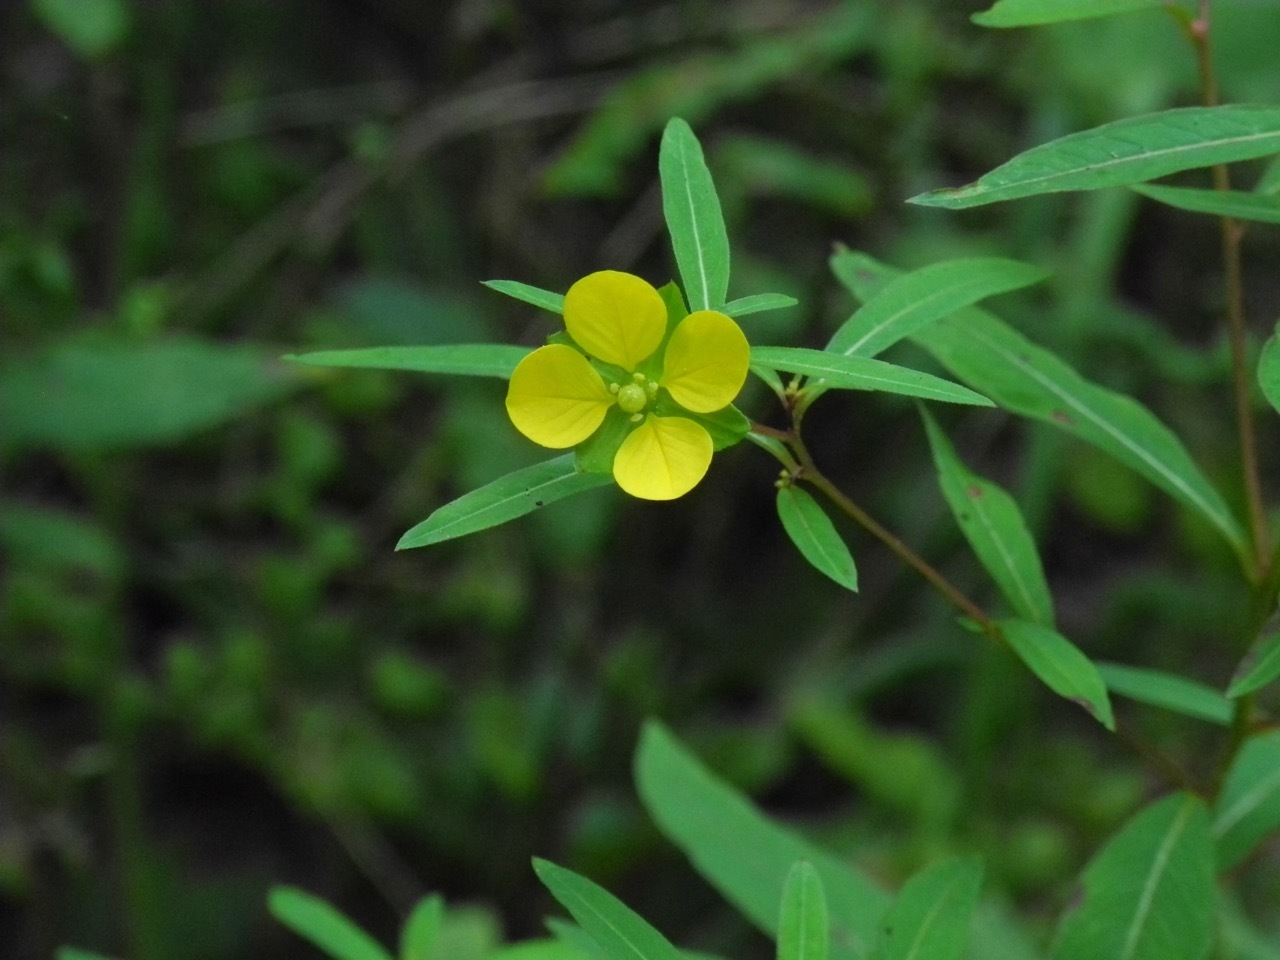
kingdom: Plantae
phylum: Tracheophyta
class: Magnoliopsida
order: Myrtales
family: Onagraceae
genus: Ludwigia
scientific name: Ludwigia alternifolia
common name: Rattlebox
